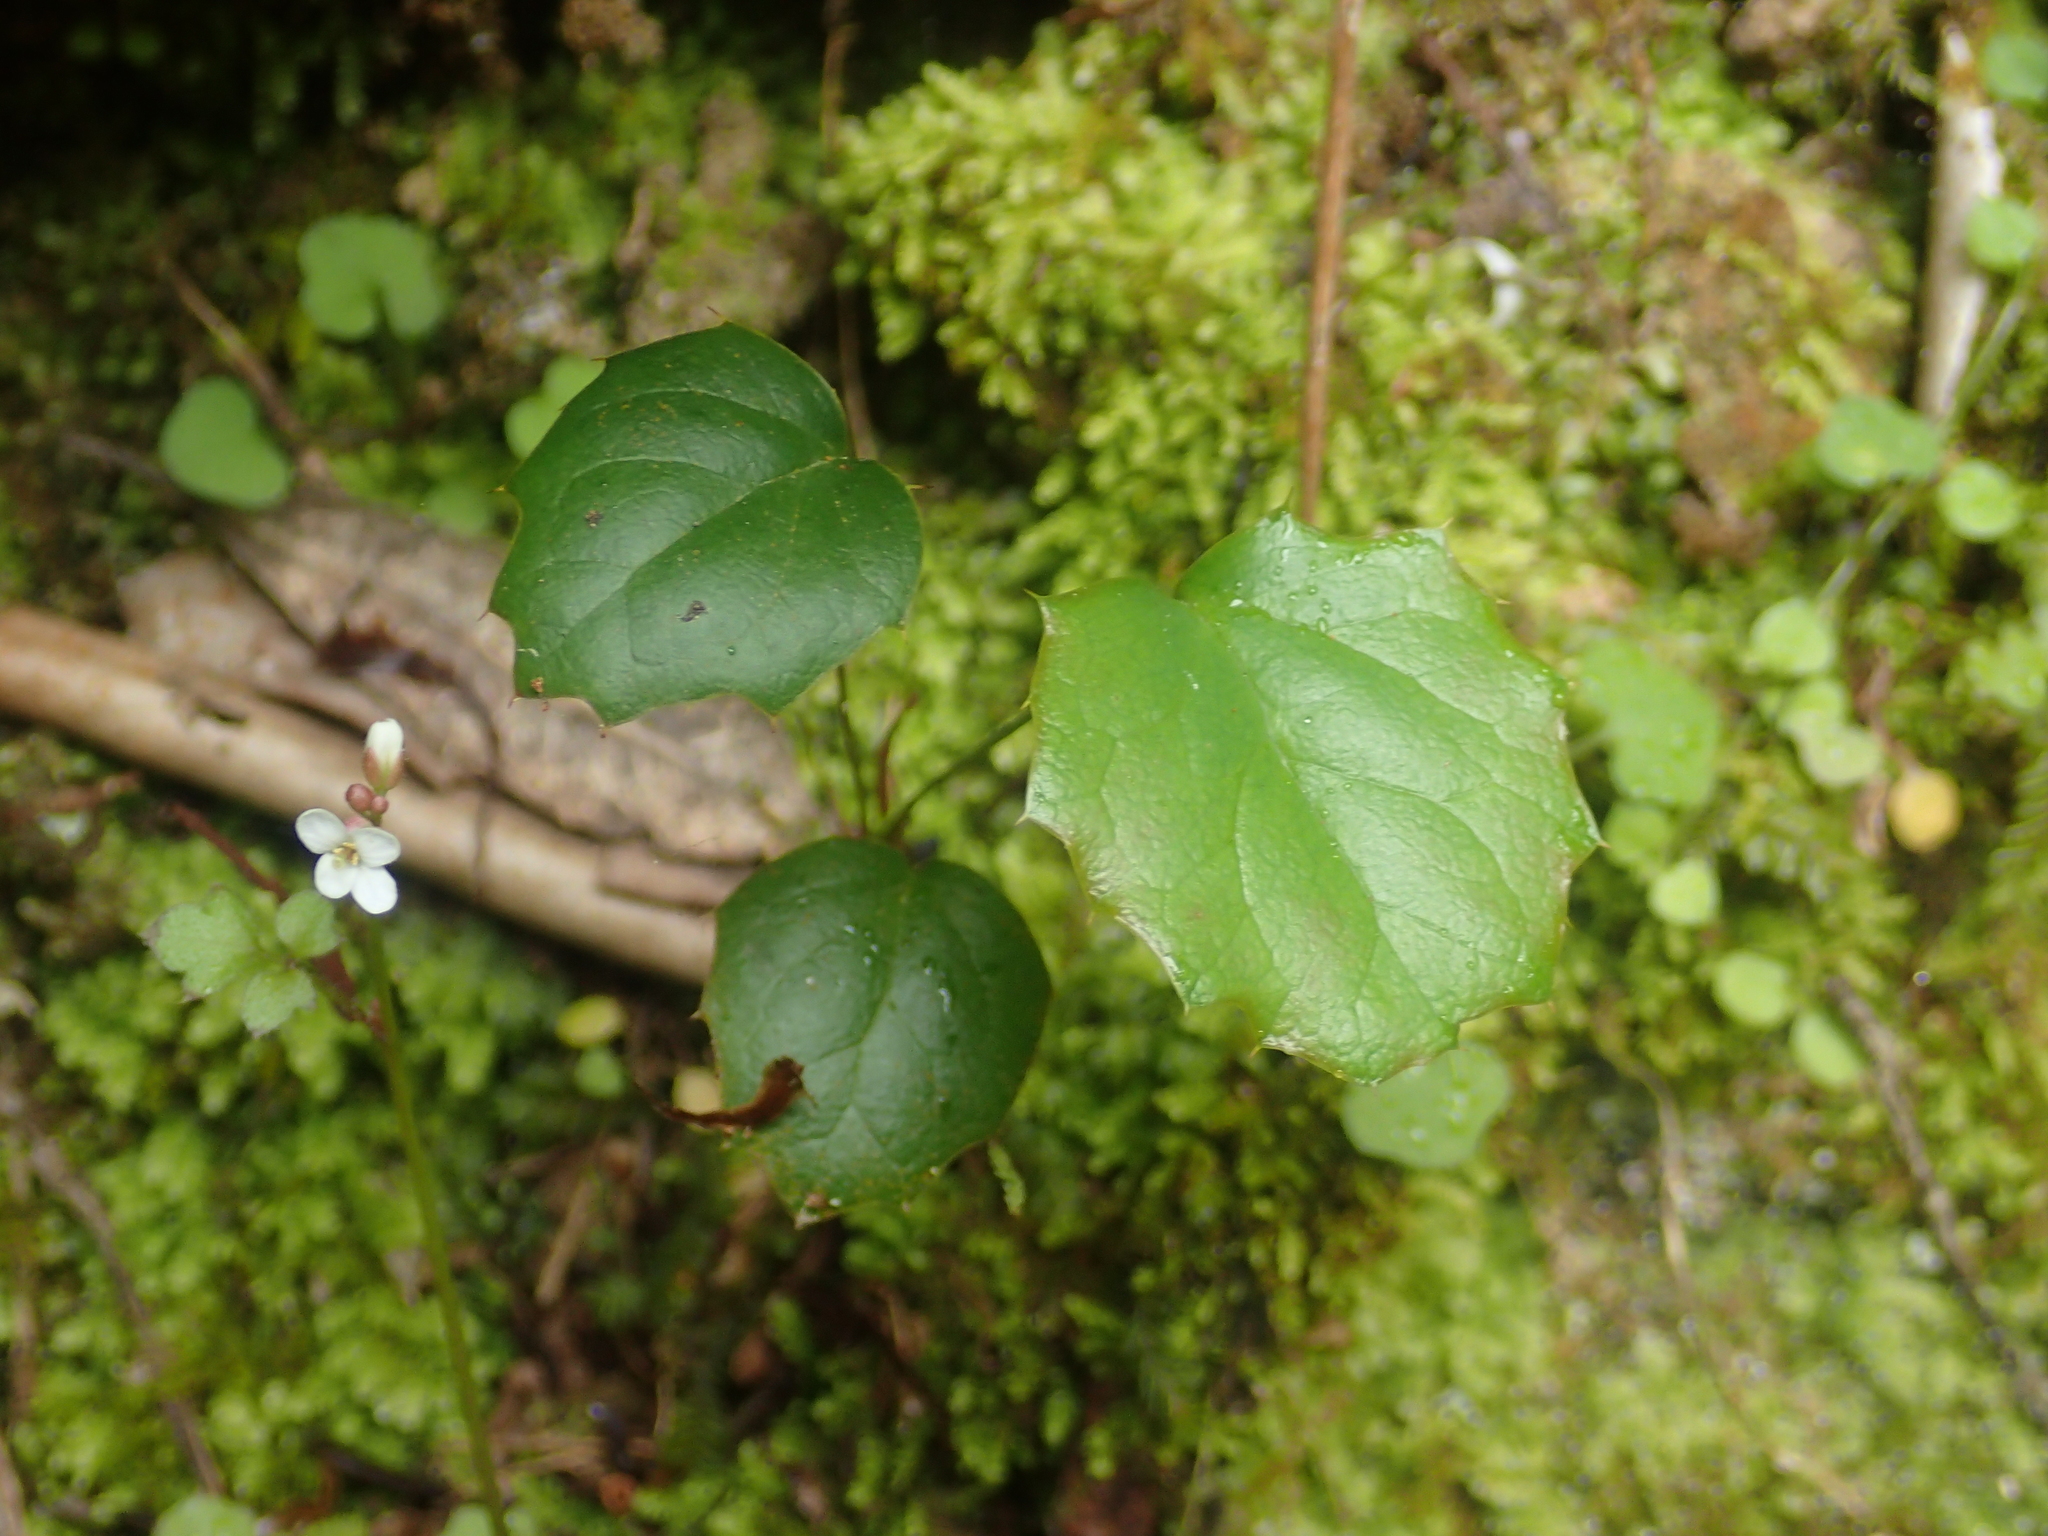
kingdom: Plantae
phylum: Tracheophyta
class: Magnoliopsida
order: Ranunculales
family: Berberidaceae
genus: Berberis
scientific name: Berberis darwinii
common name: Darwin's barberry
